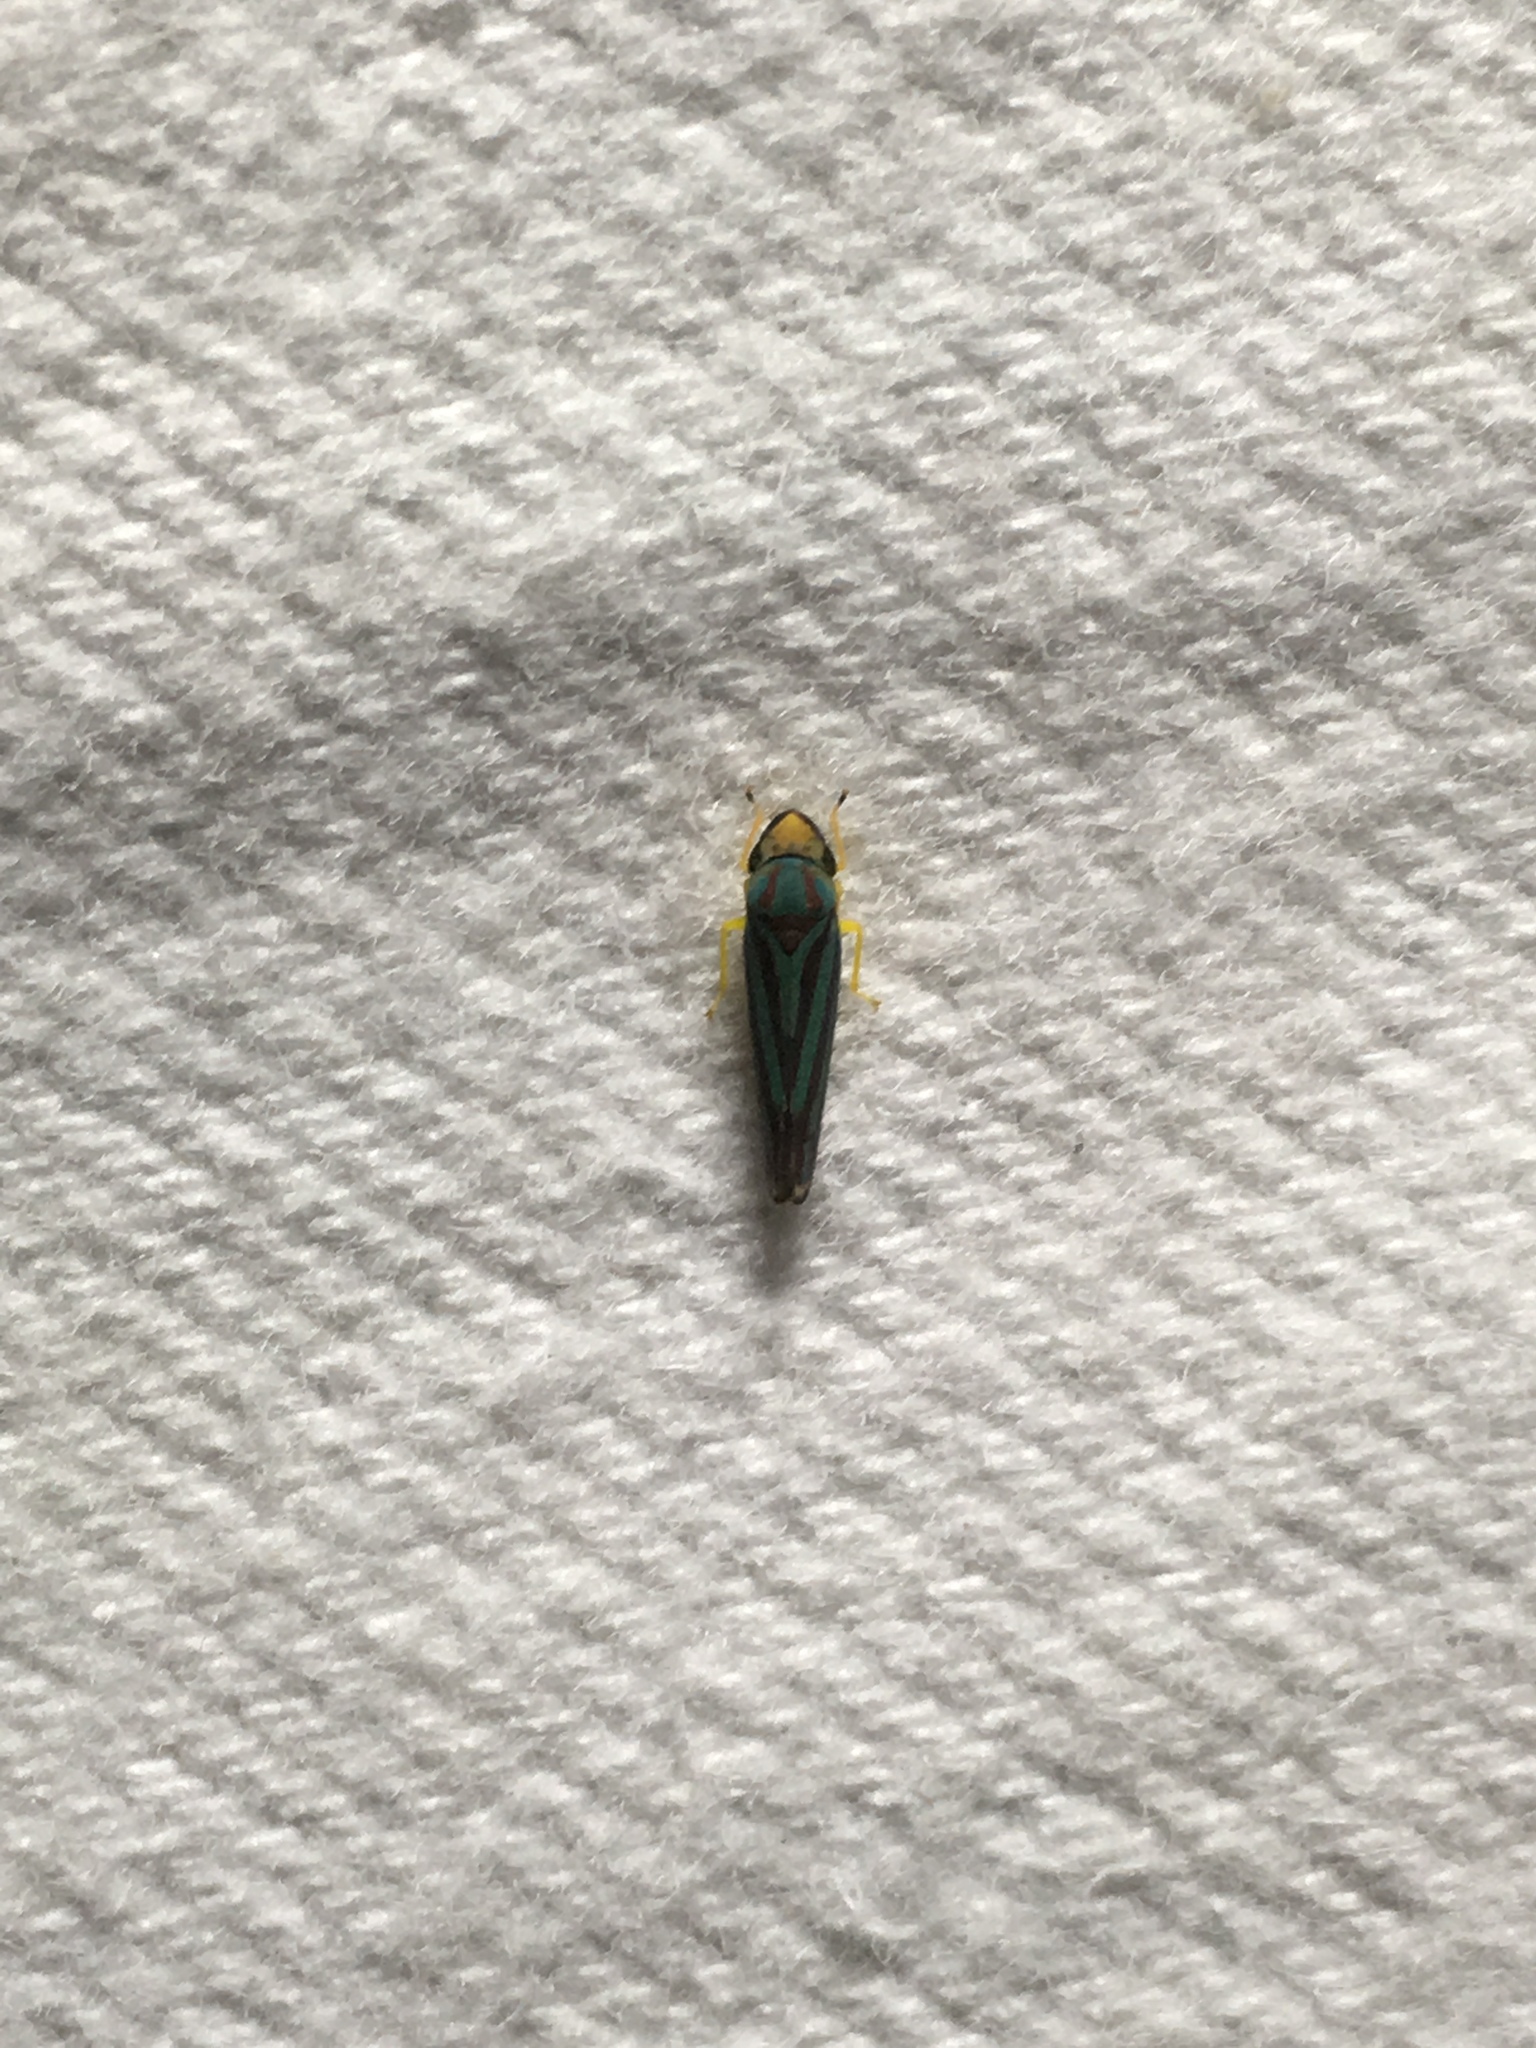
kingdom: Animalia
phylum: Arthropoda
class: Insecta
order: Hemiptera
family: Cicadellidae
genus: Graphocephala
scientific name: Graphocephala
